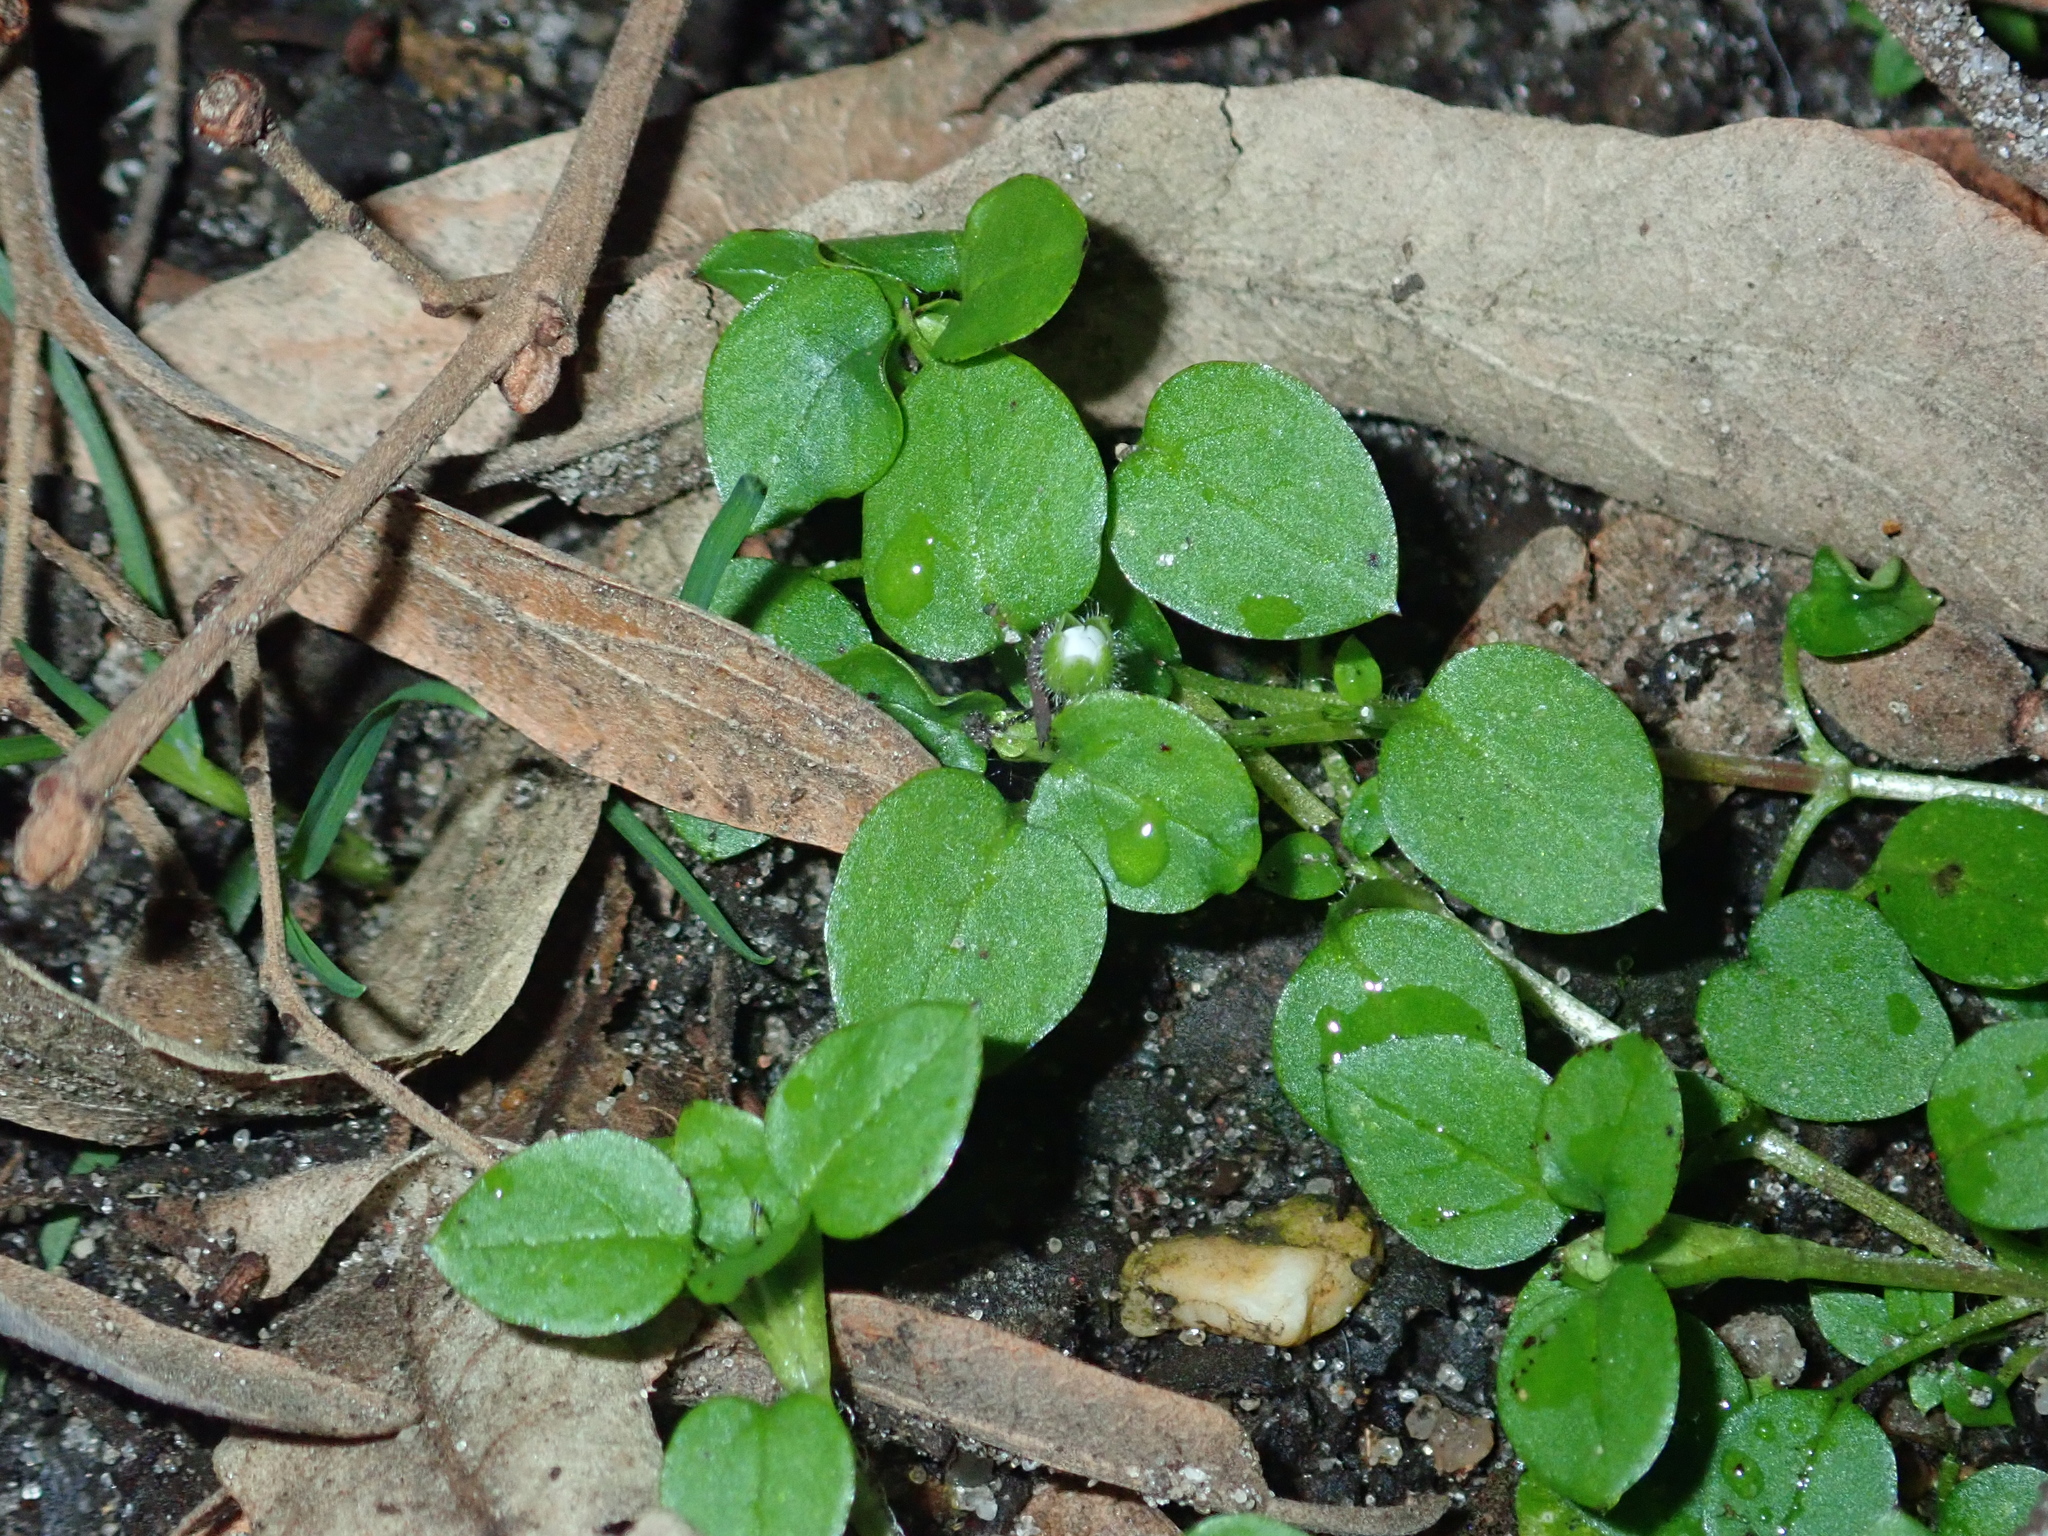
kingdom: Plantae
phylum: Tracheophyta
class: Magnoliopsida
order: Caryophyllales
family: Caryophyllaceae
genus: Stellaria
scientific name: Stellaria media
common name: Common chickweed
